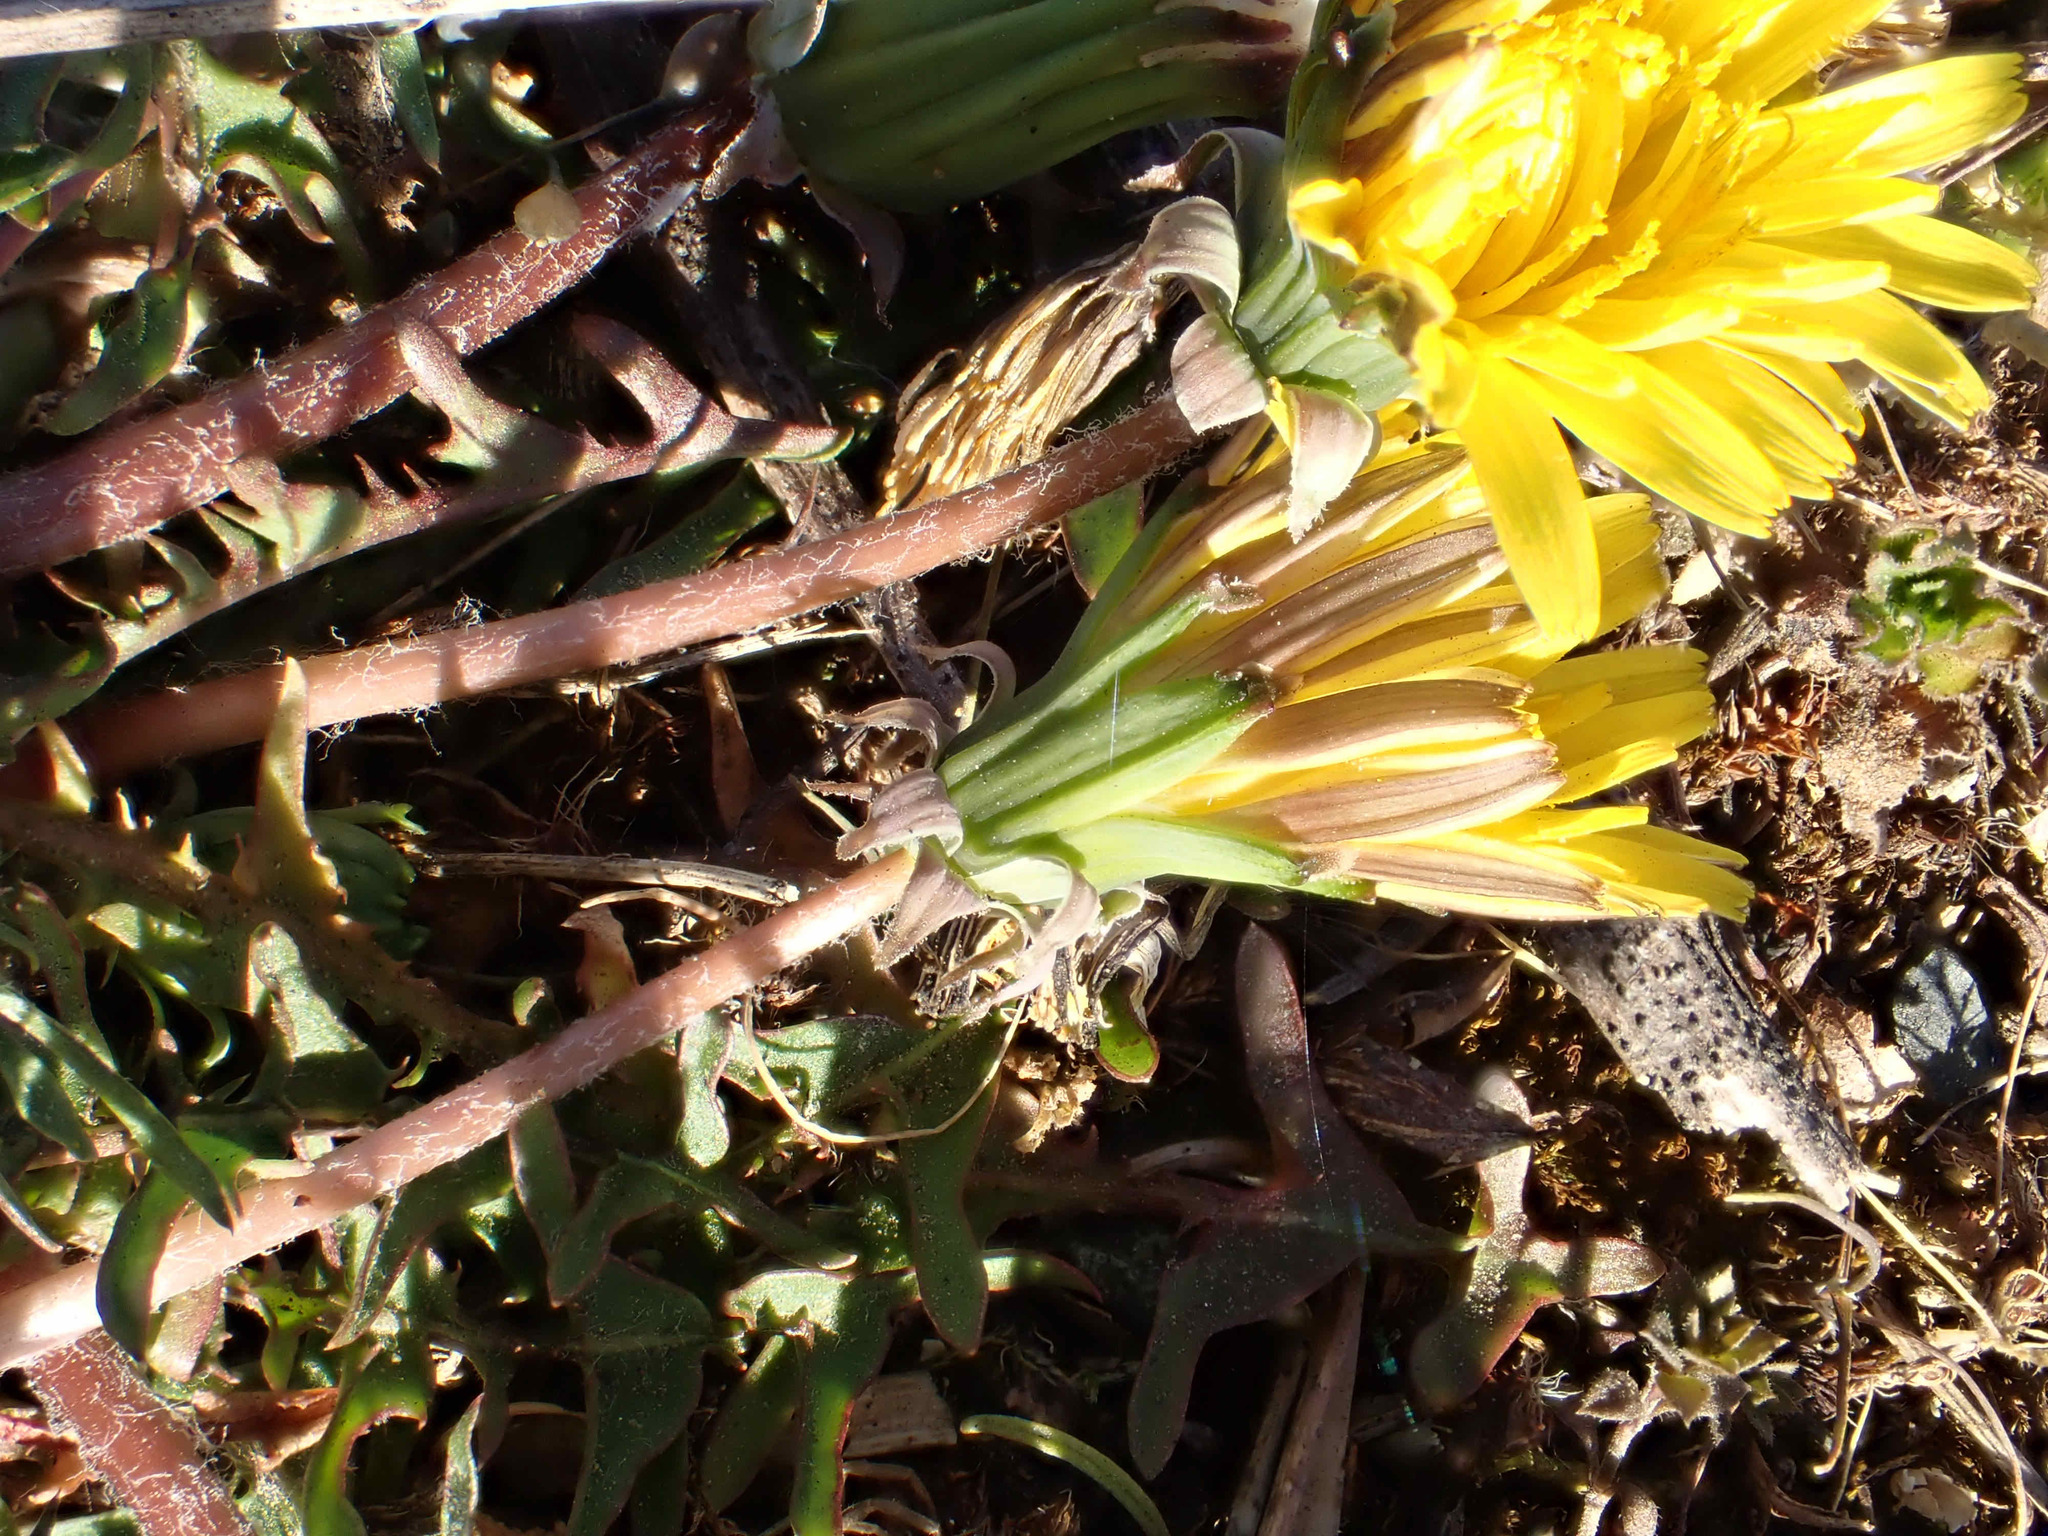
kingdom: Plantae
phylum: Tracheophyta
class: Magnoliopsida
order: Asterales
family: Asteraceae
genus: Taraxacum
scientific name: Taraxacum lacistophyllum
